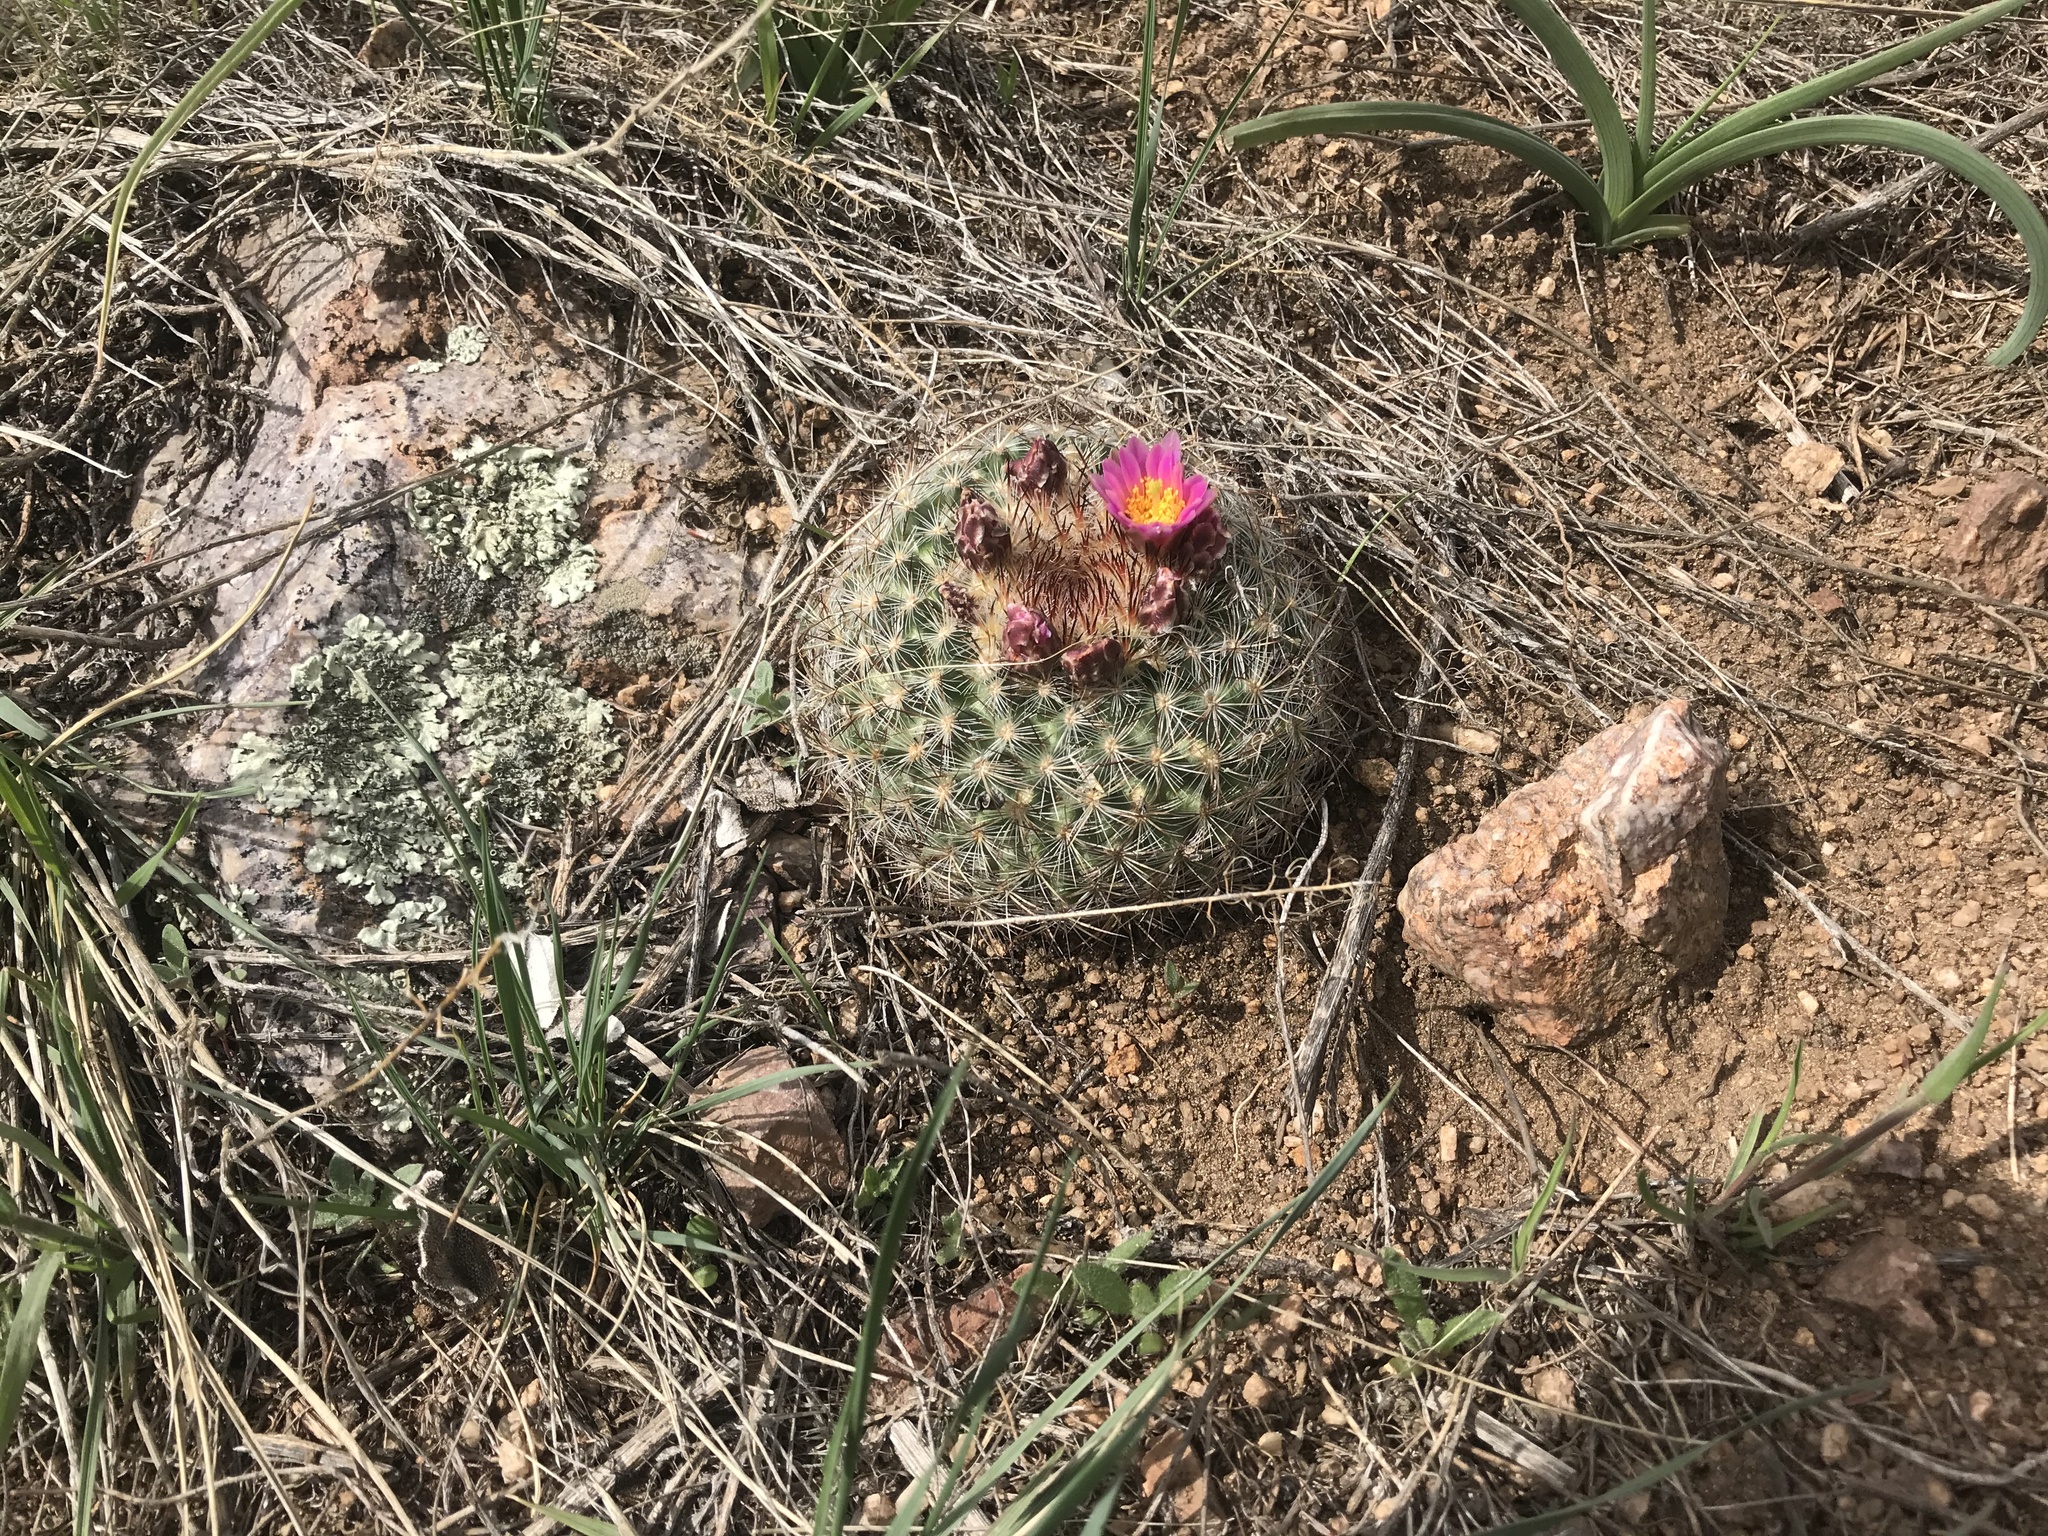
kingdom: Plantae
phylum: Tracheophyta
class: Magnoliopsida
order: Caryophyllales
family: Cactaceae
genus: Pediocactus
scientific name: Pediocactus simpsonii
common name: Simpson's hedgehog cactus
